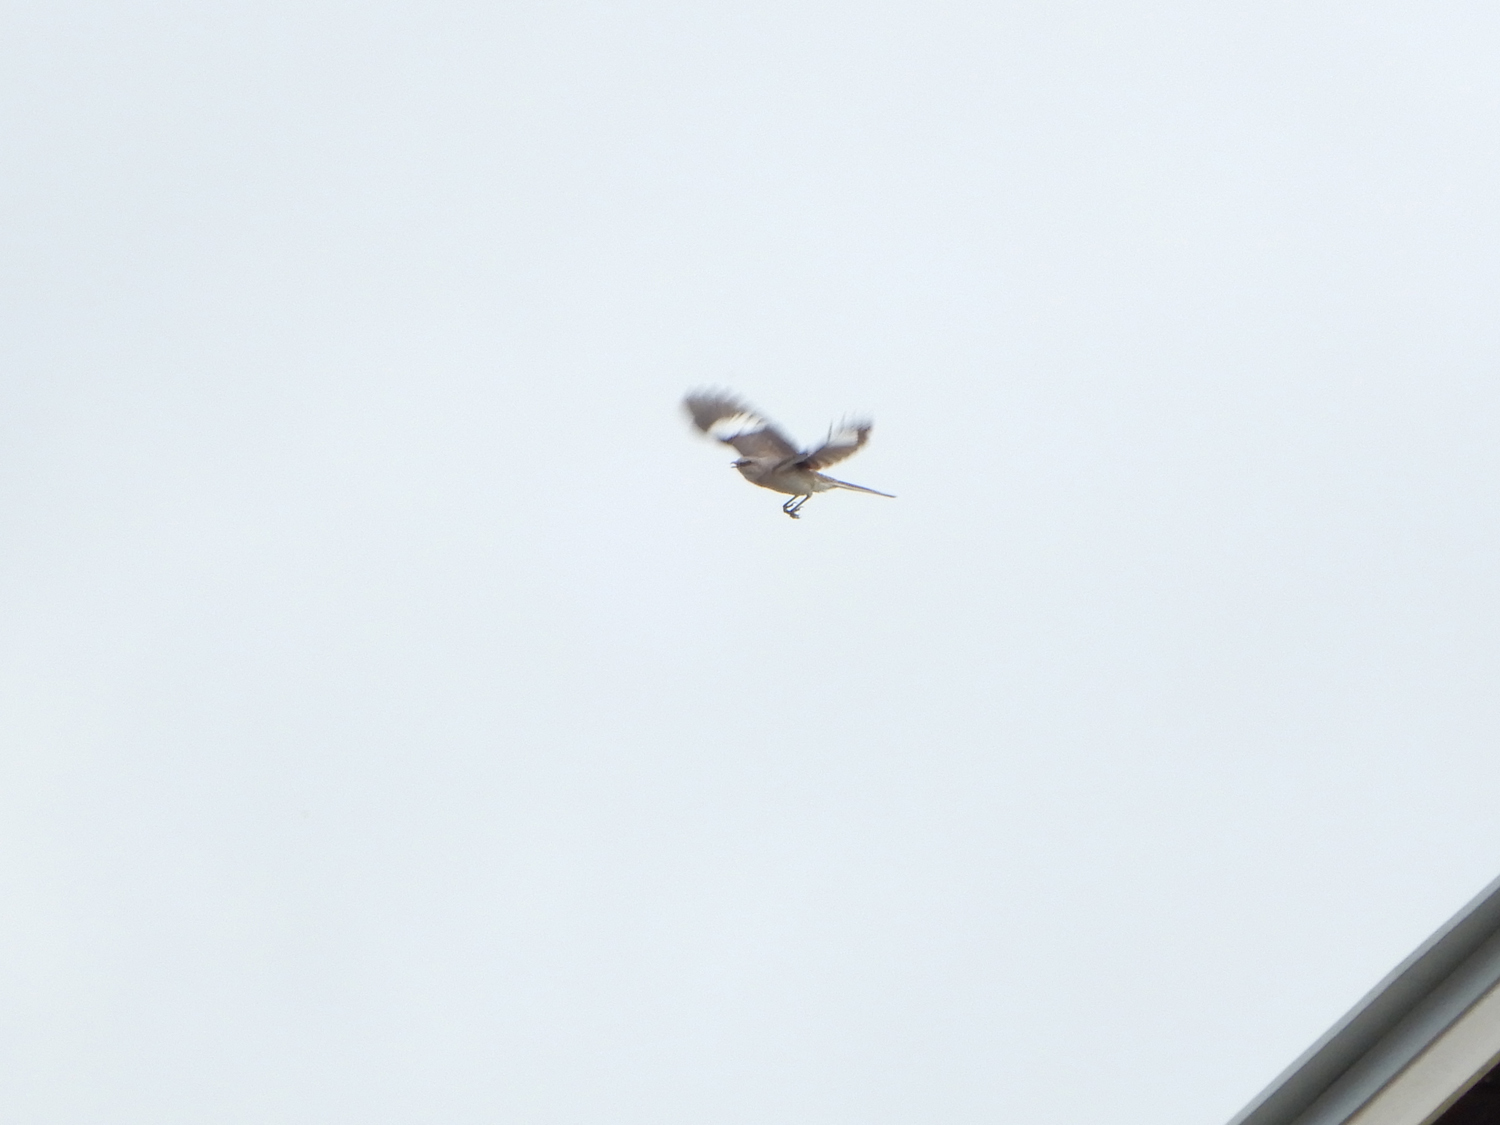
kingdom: Animalia
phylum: Chordata
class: Aves
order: Passeriformes
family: Mimidae
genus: Mimus
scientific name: Mimus polyglottos
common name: Northern mockingbird
